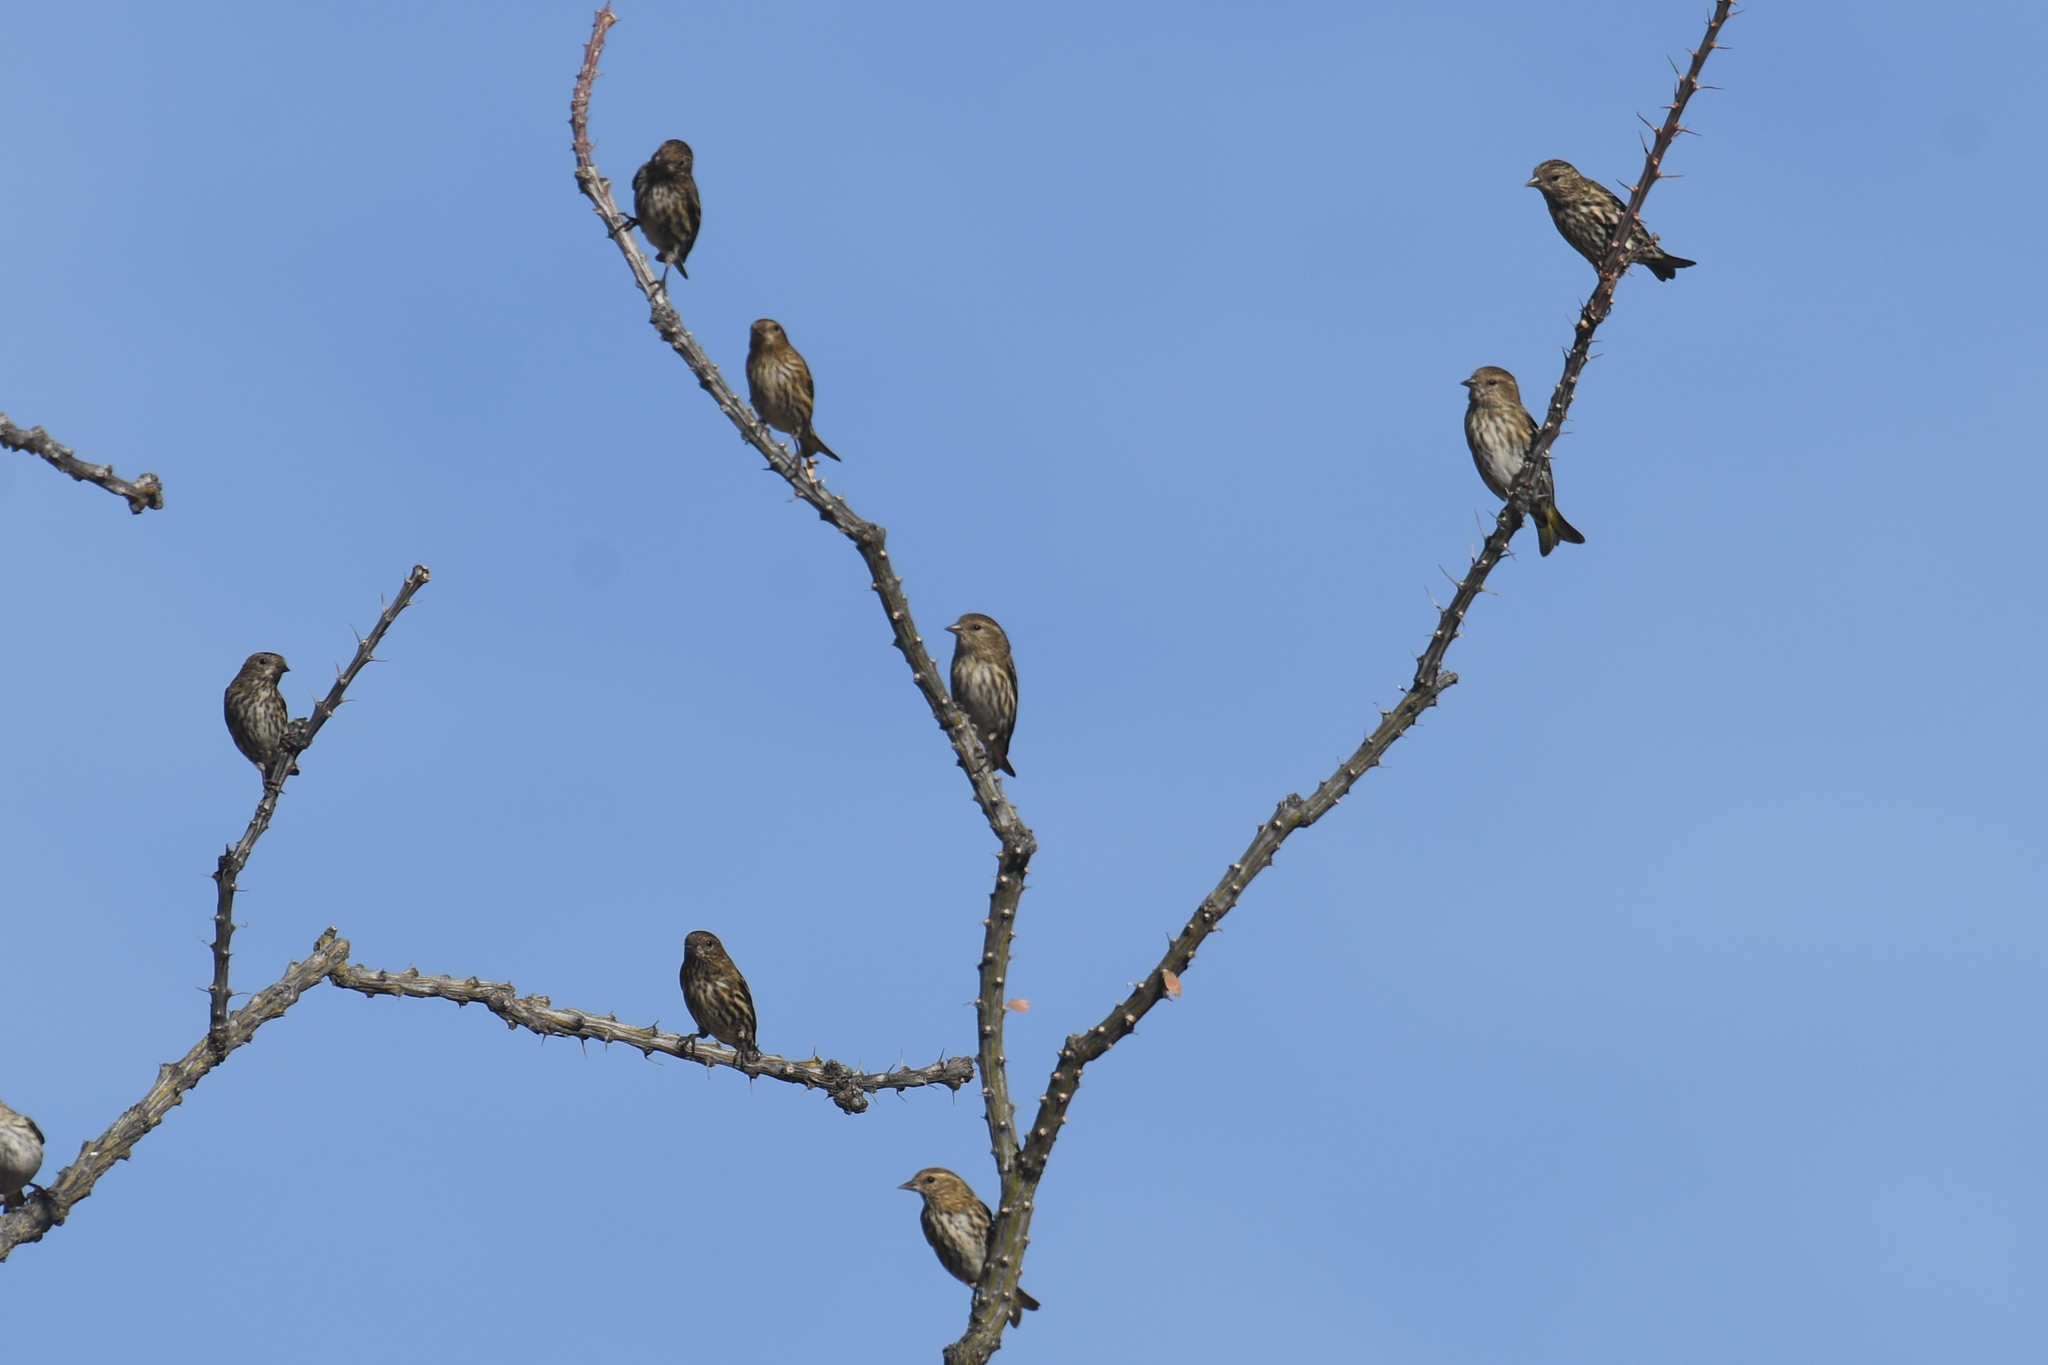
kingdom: Animalia
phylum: Chordata
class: Aves
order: Passeriformes
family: Fringillidae
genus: Spinus
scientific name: Spinus pinus
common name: Pine siskin
